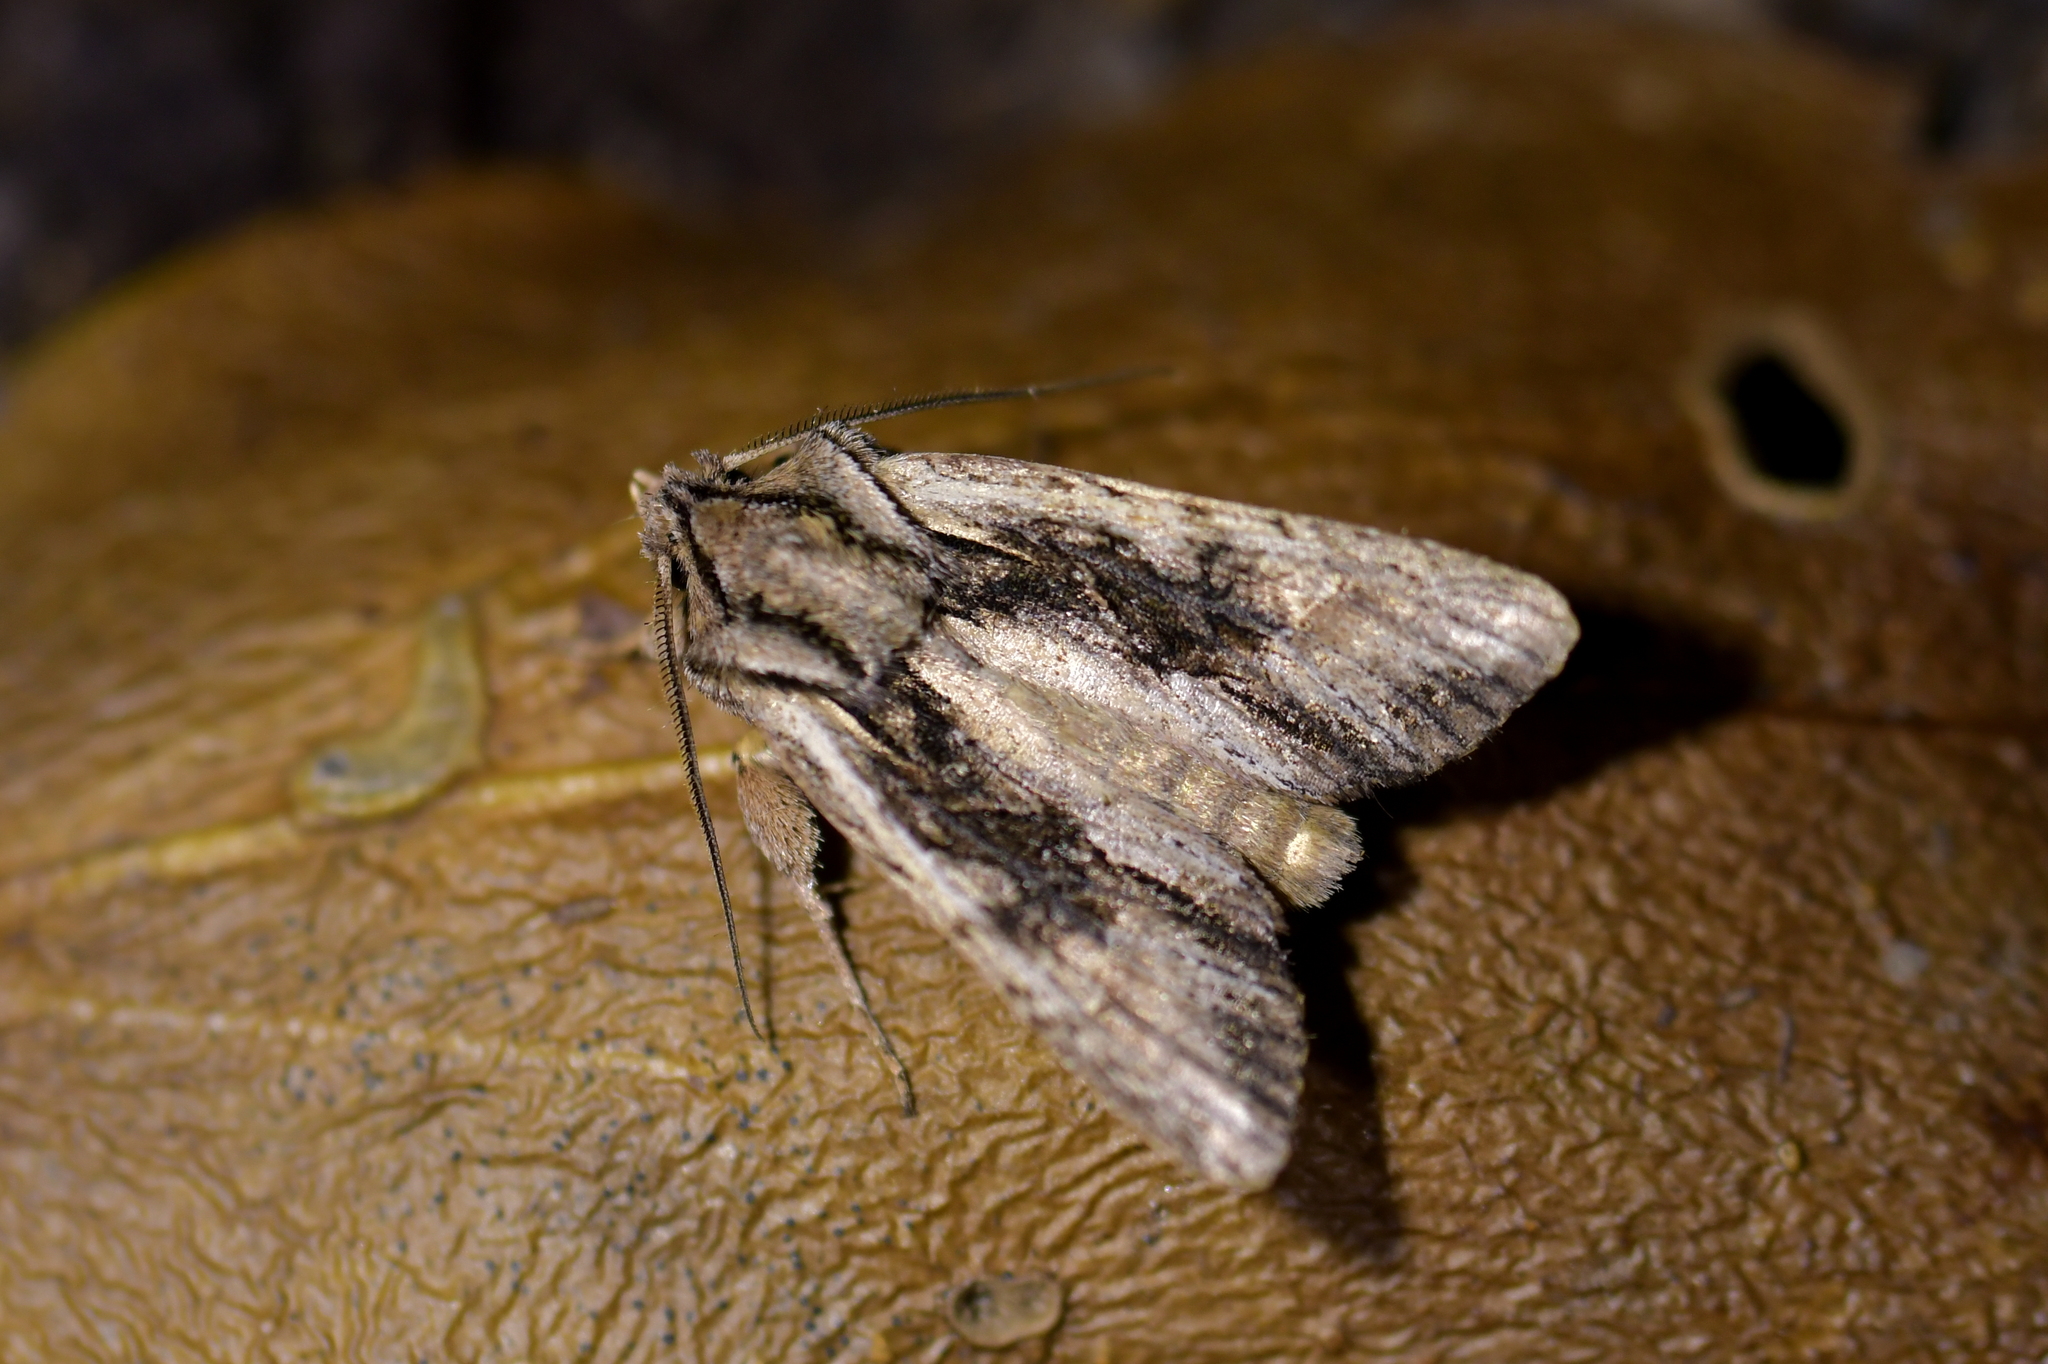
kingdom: Animalia
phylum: Arthropoda
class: Insecta
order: Lepidoptera
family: Noctuidae
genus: Ichneutica
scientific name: Ichneutica mutans
